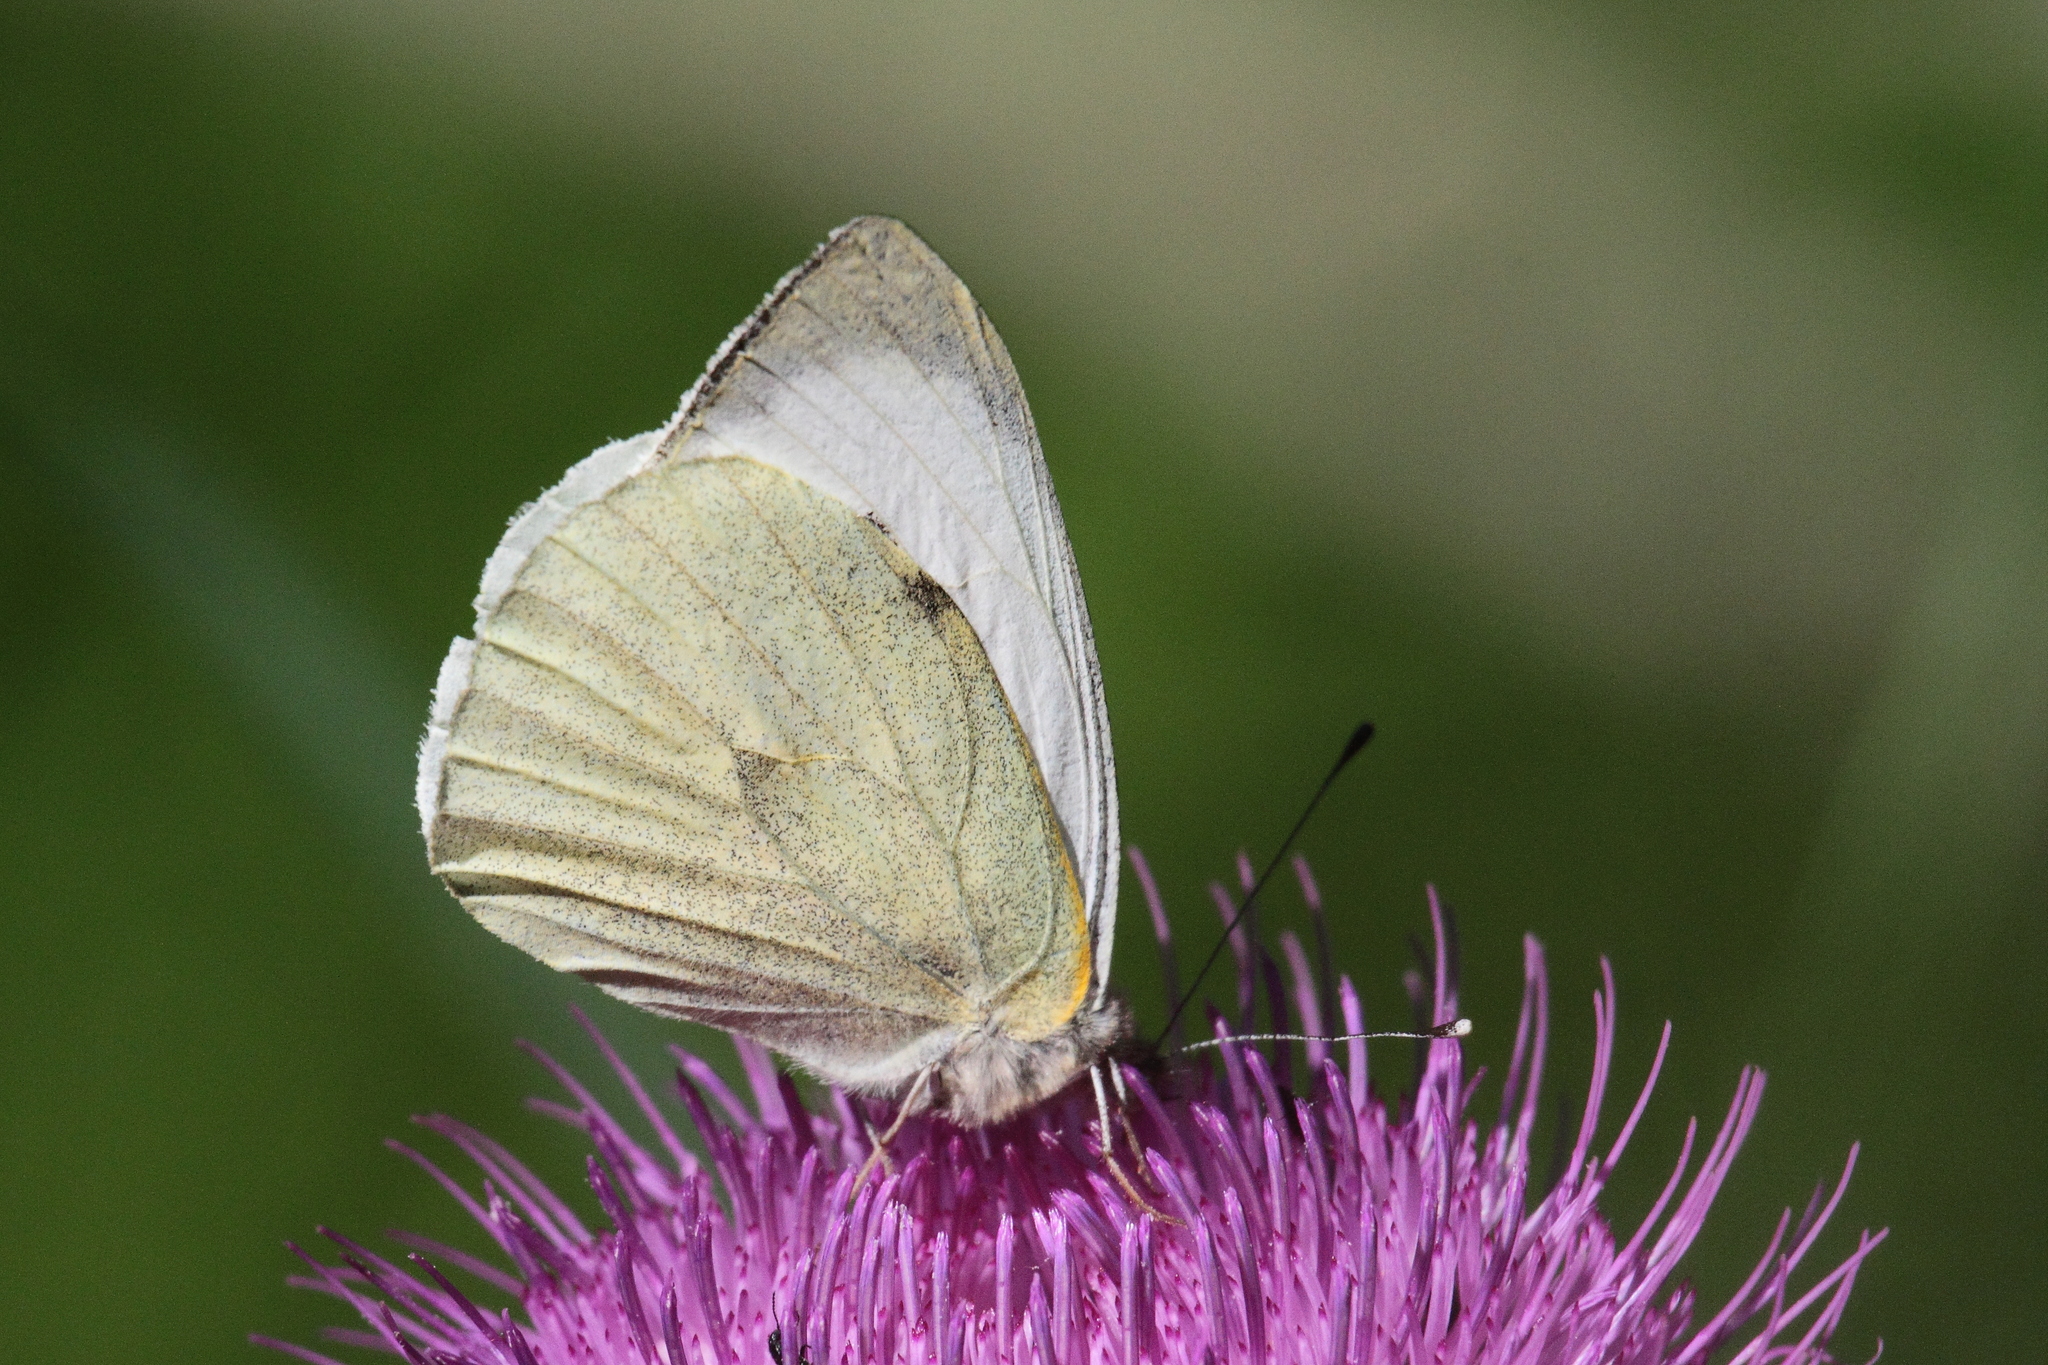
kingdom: Animalia
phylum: Arthropoda
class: Insecta
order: Lepidoptera
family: Pieridae
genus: Pieris
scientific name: Pieris brassicae
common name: Large white
